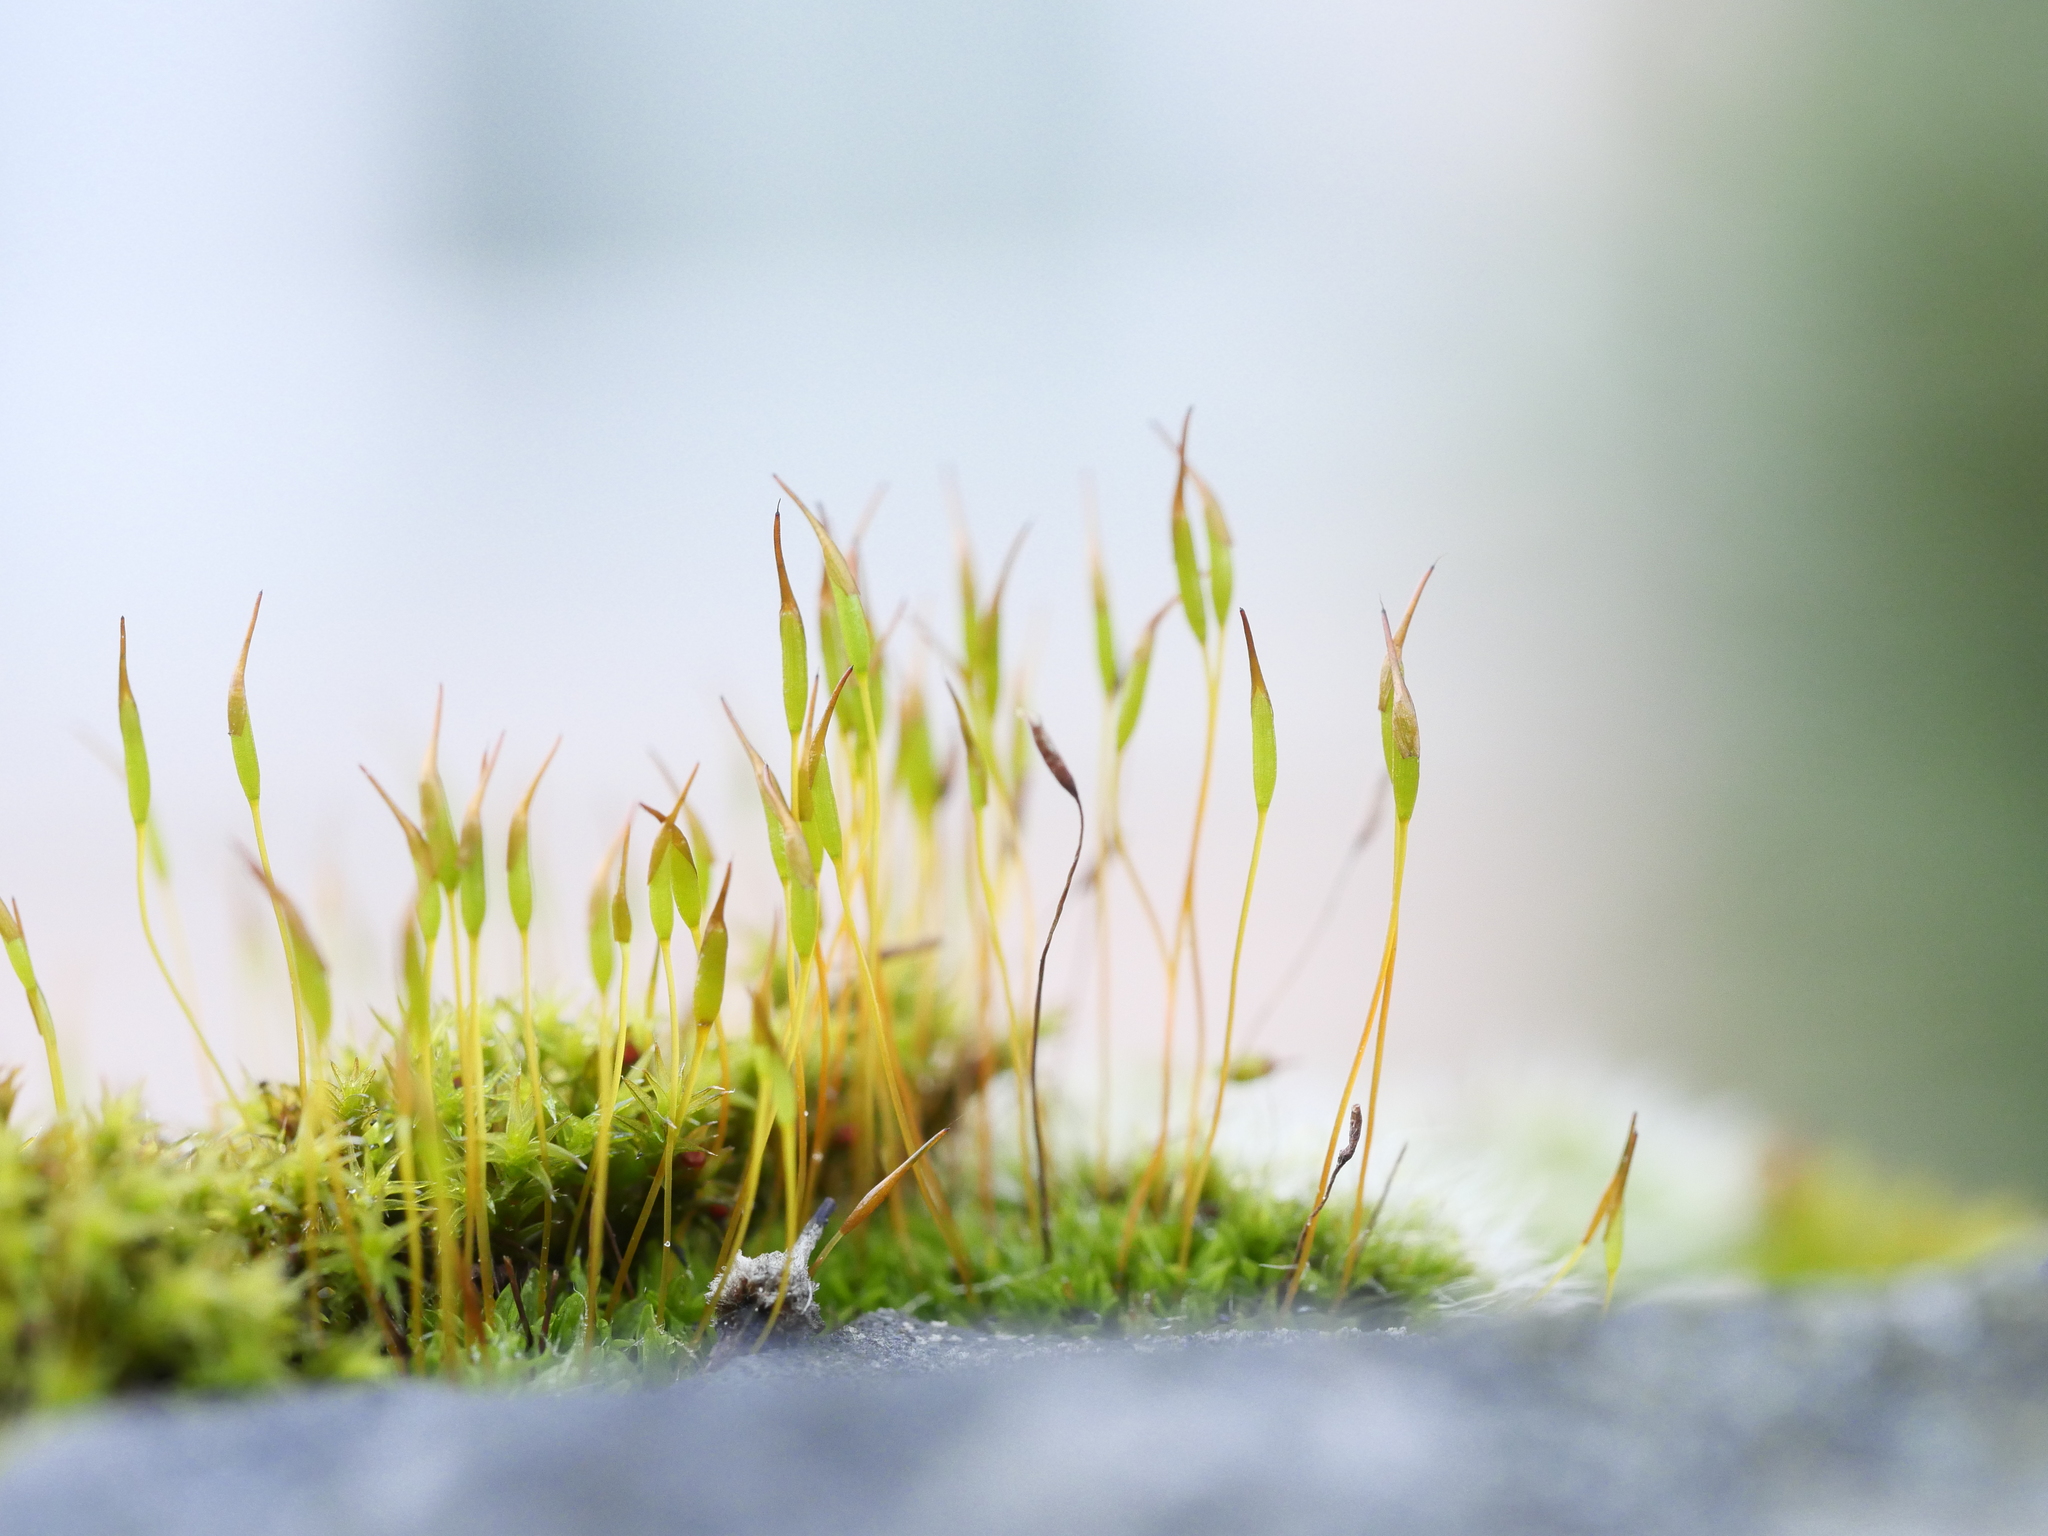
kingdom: Plantae
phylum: Bryophyta
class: Bryopsida
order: Pottiales
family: Pottiaceae
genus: Tortula
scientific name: Tortula muralis
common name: Wall screw-moss
